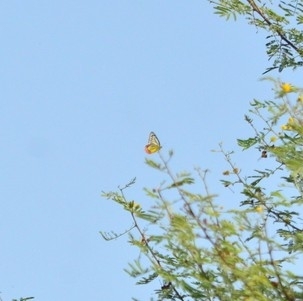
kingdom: Animalia
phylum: Arthropoda
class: Insecta
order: Lepidoptera
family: Pieridae
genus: Delias
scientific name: Delias eucharis
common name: Common jezebel
